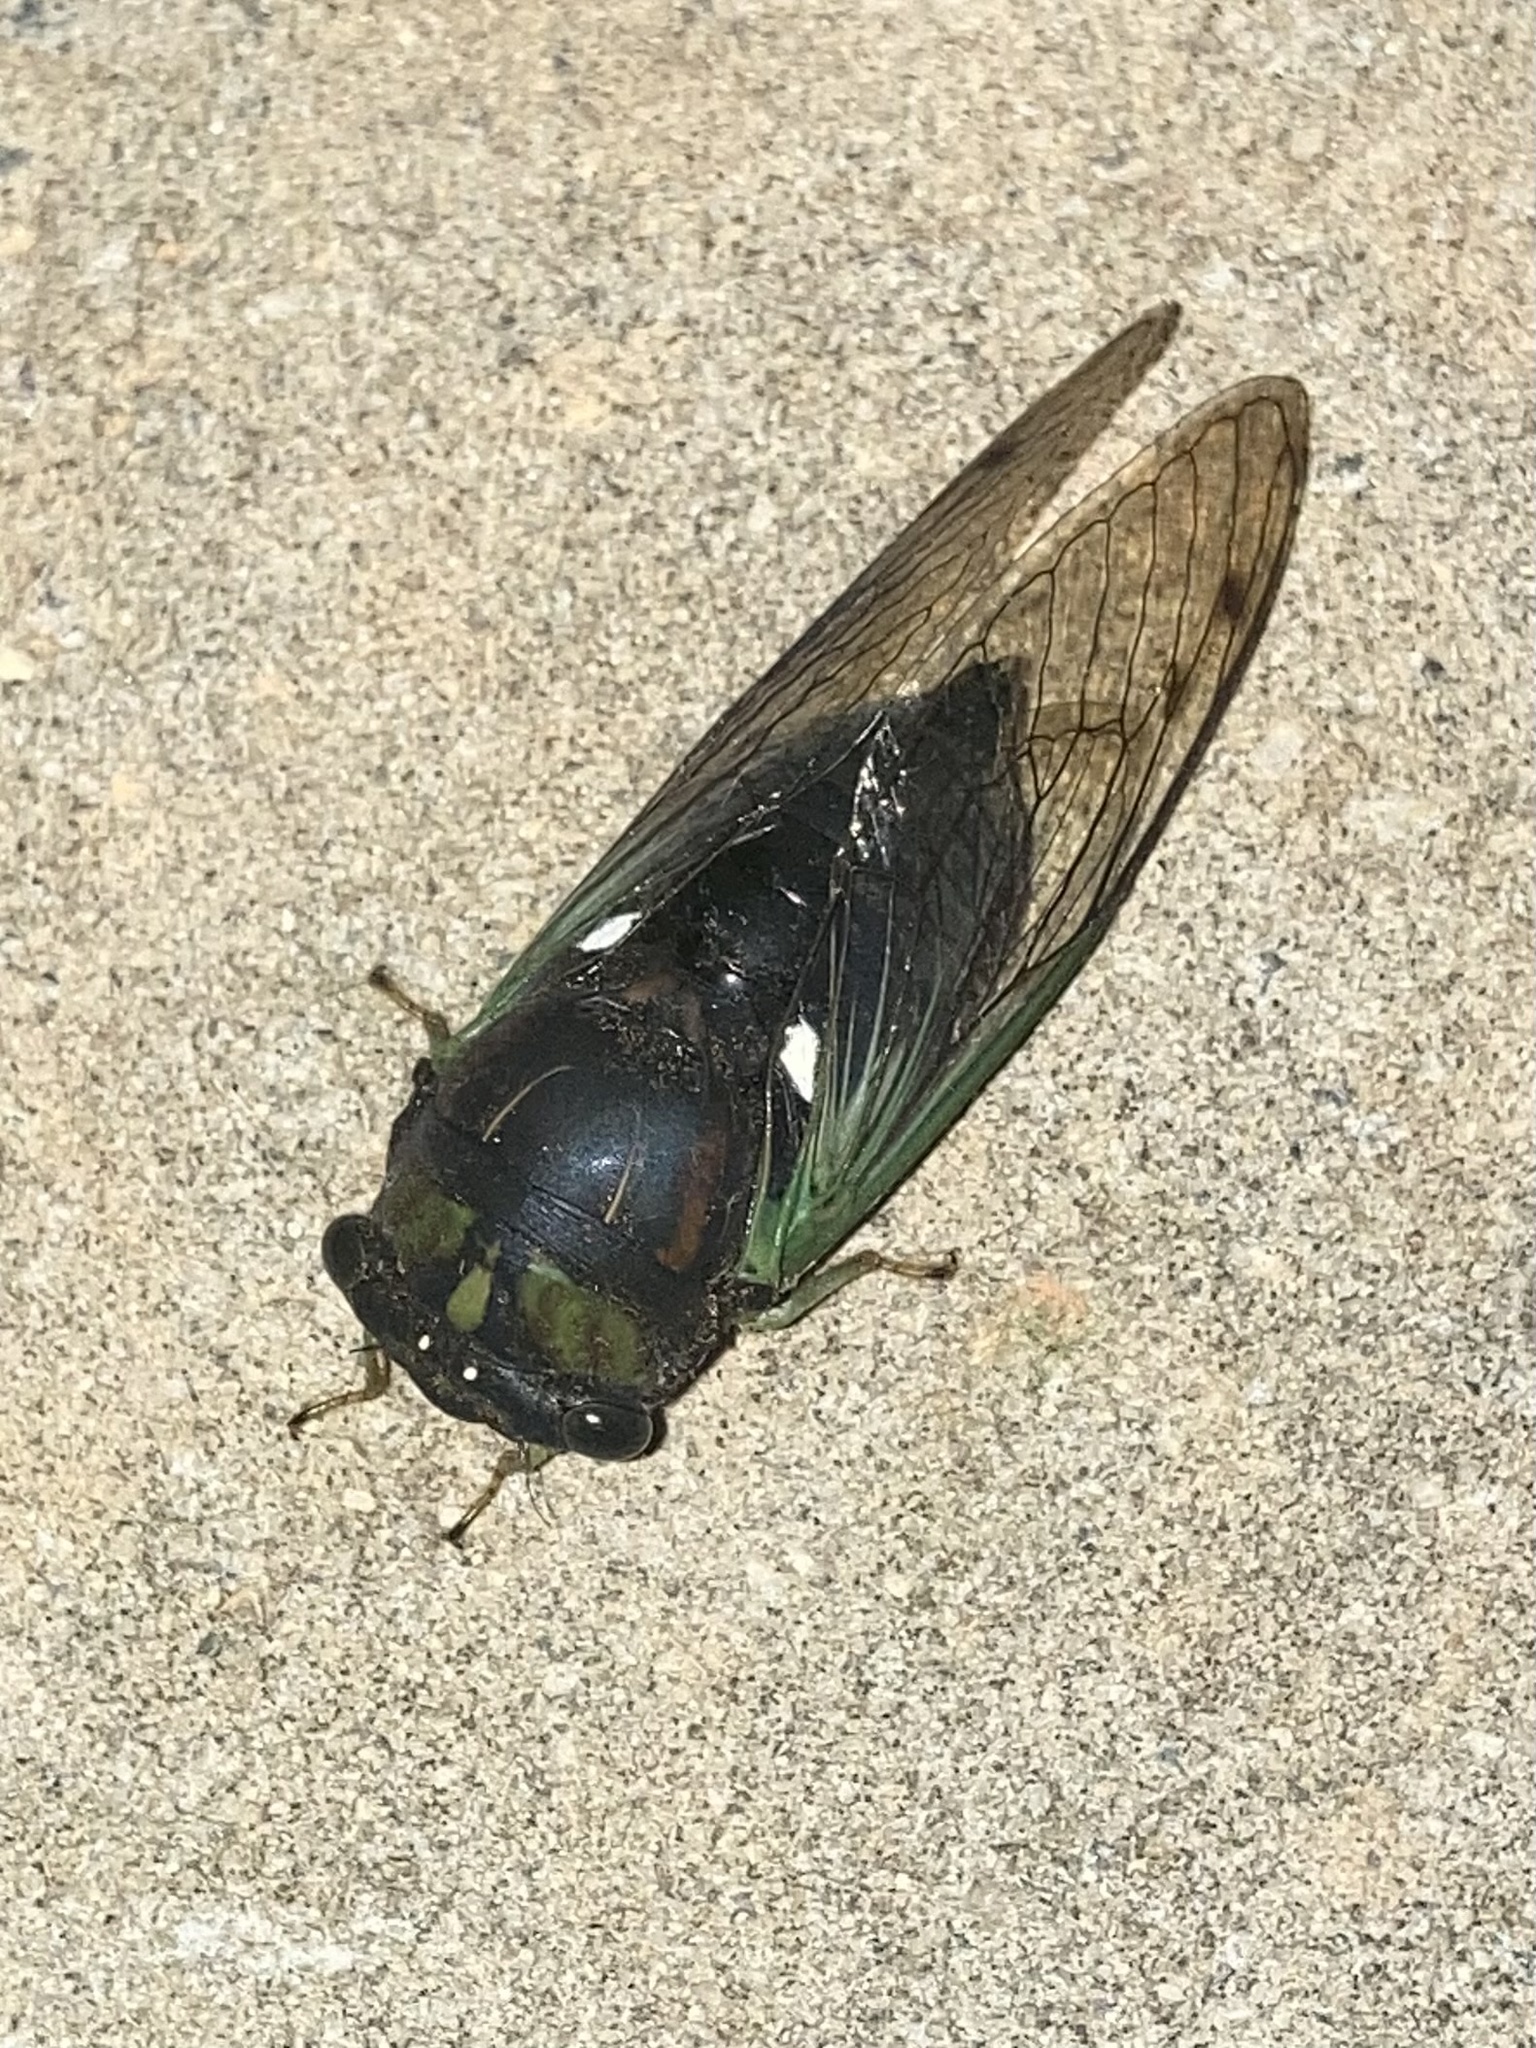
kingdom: Animalia
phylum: Arthropoda
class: Insecta
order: Hemiptera
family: Cicadidae
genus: Neotibicen
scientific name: Neotibicen tibicen
